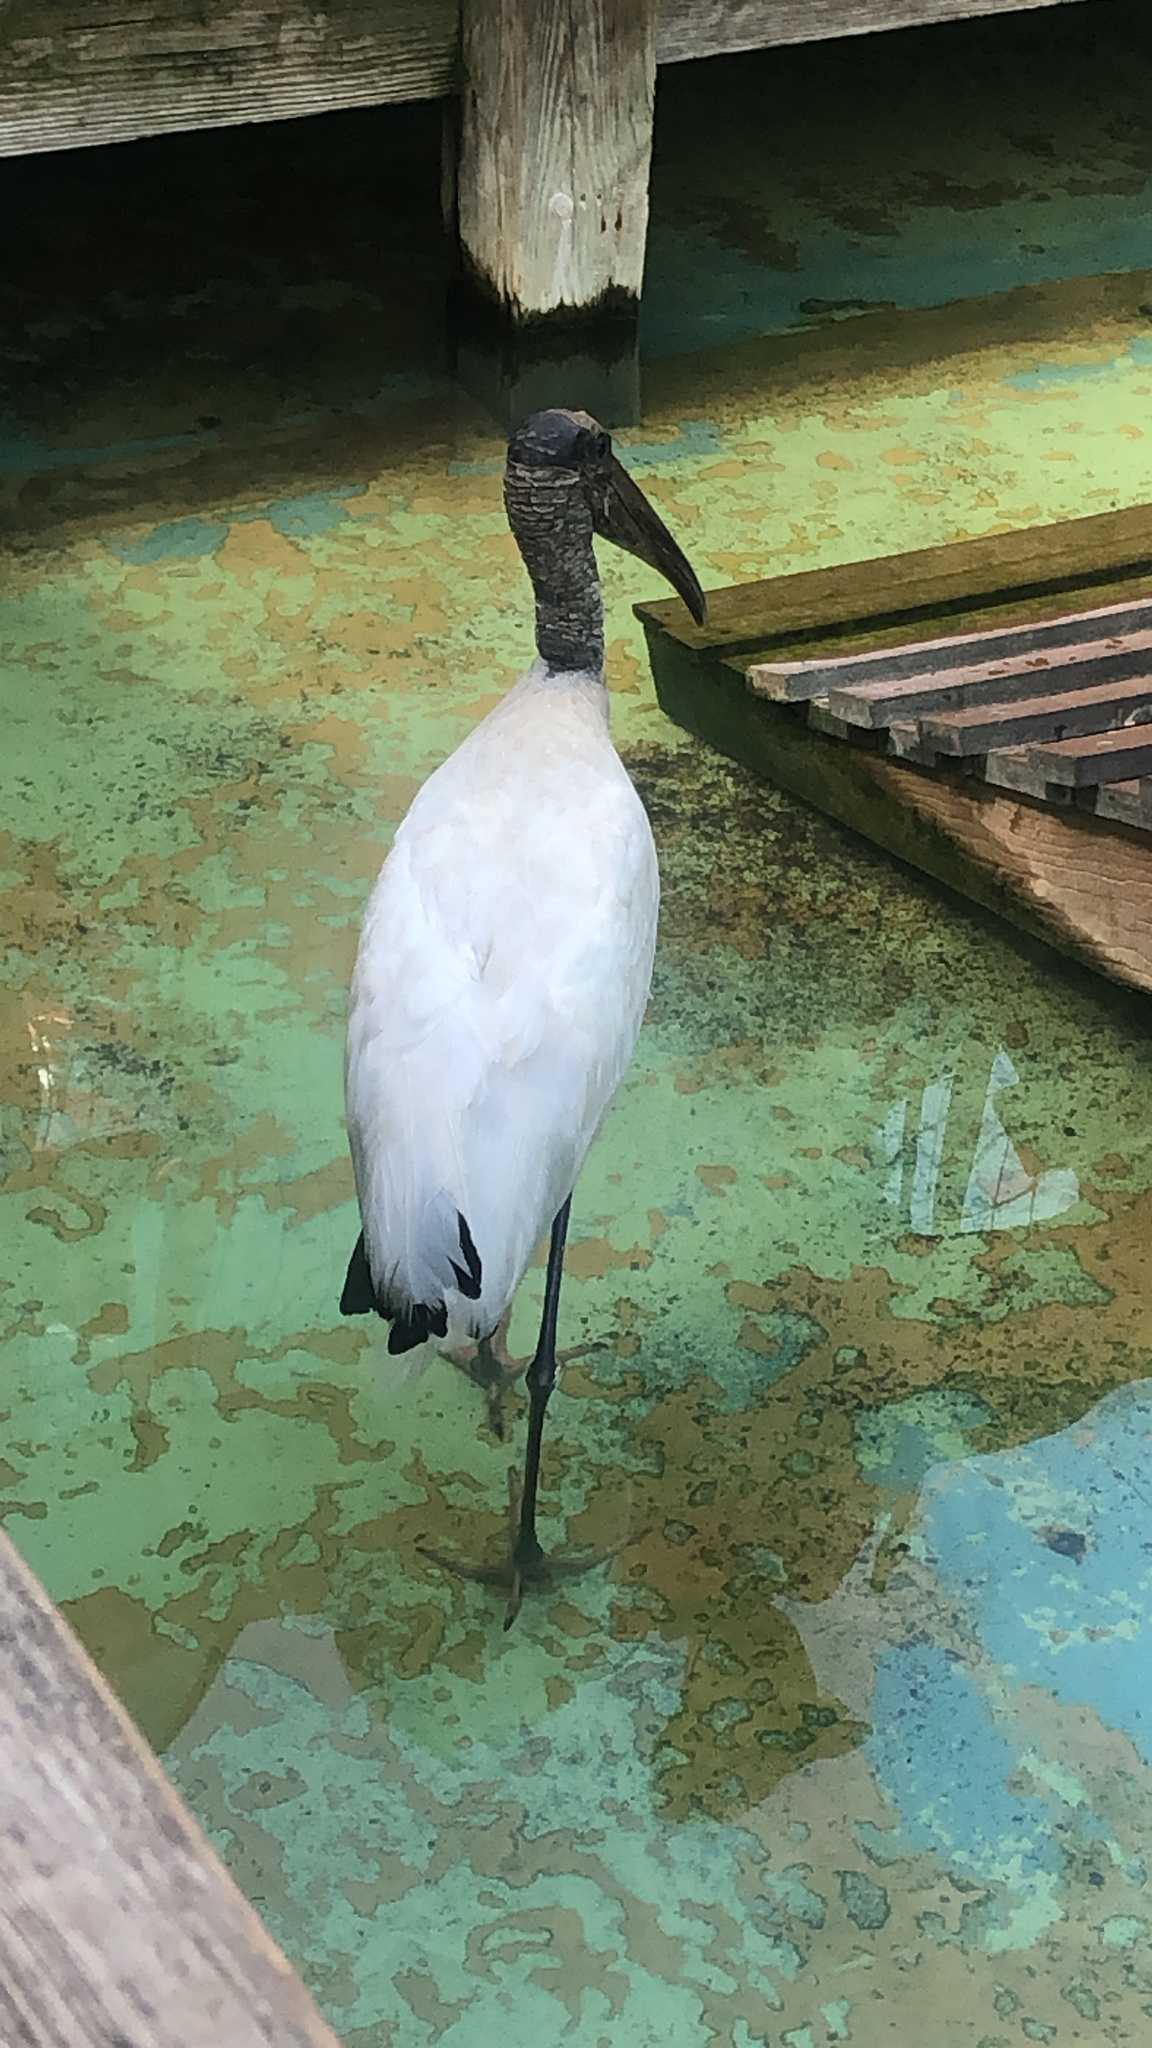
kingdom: Animalia
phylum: Chordata
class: Aves
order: Ciconiiformes
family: Ciconiidae
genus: Mycteria
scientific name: Mycteria americana
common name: Wood stork
